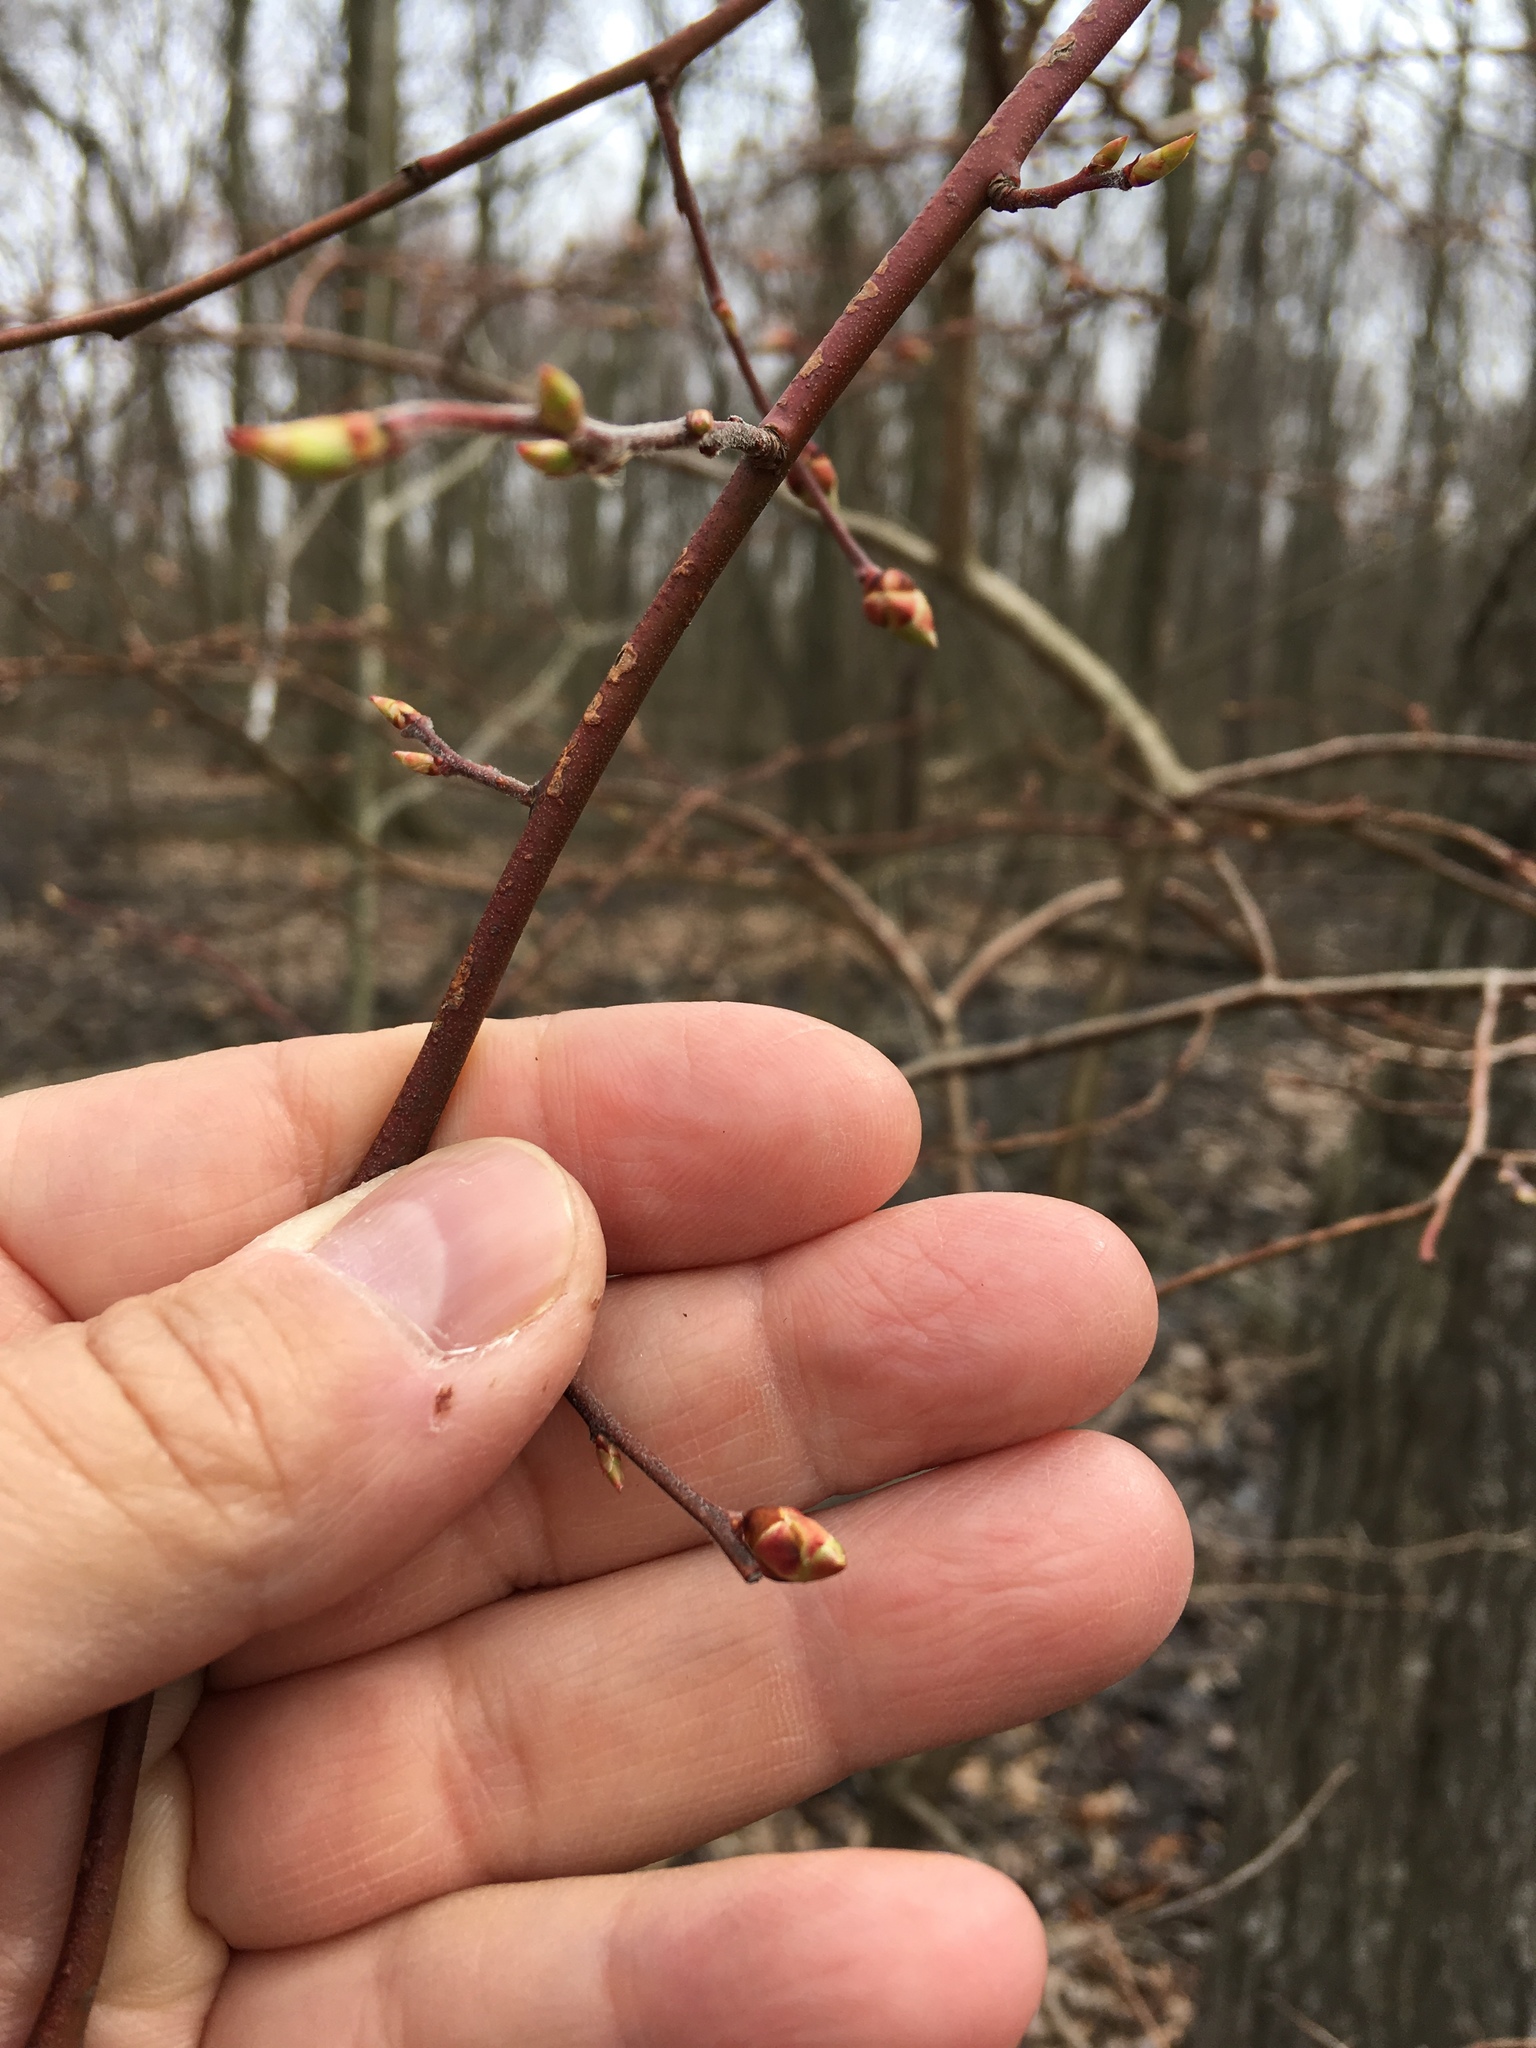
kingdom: Plantae
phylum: Tracheophyta
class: Magnoliopsida
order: Ericales
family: Ericaceae
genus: Vaccinium
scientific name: Vaccinium corymbosum
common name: Blueberry
